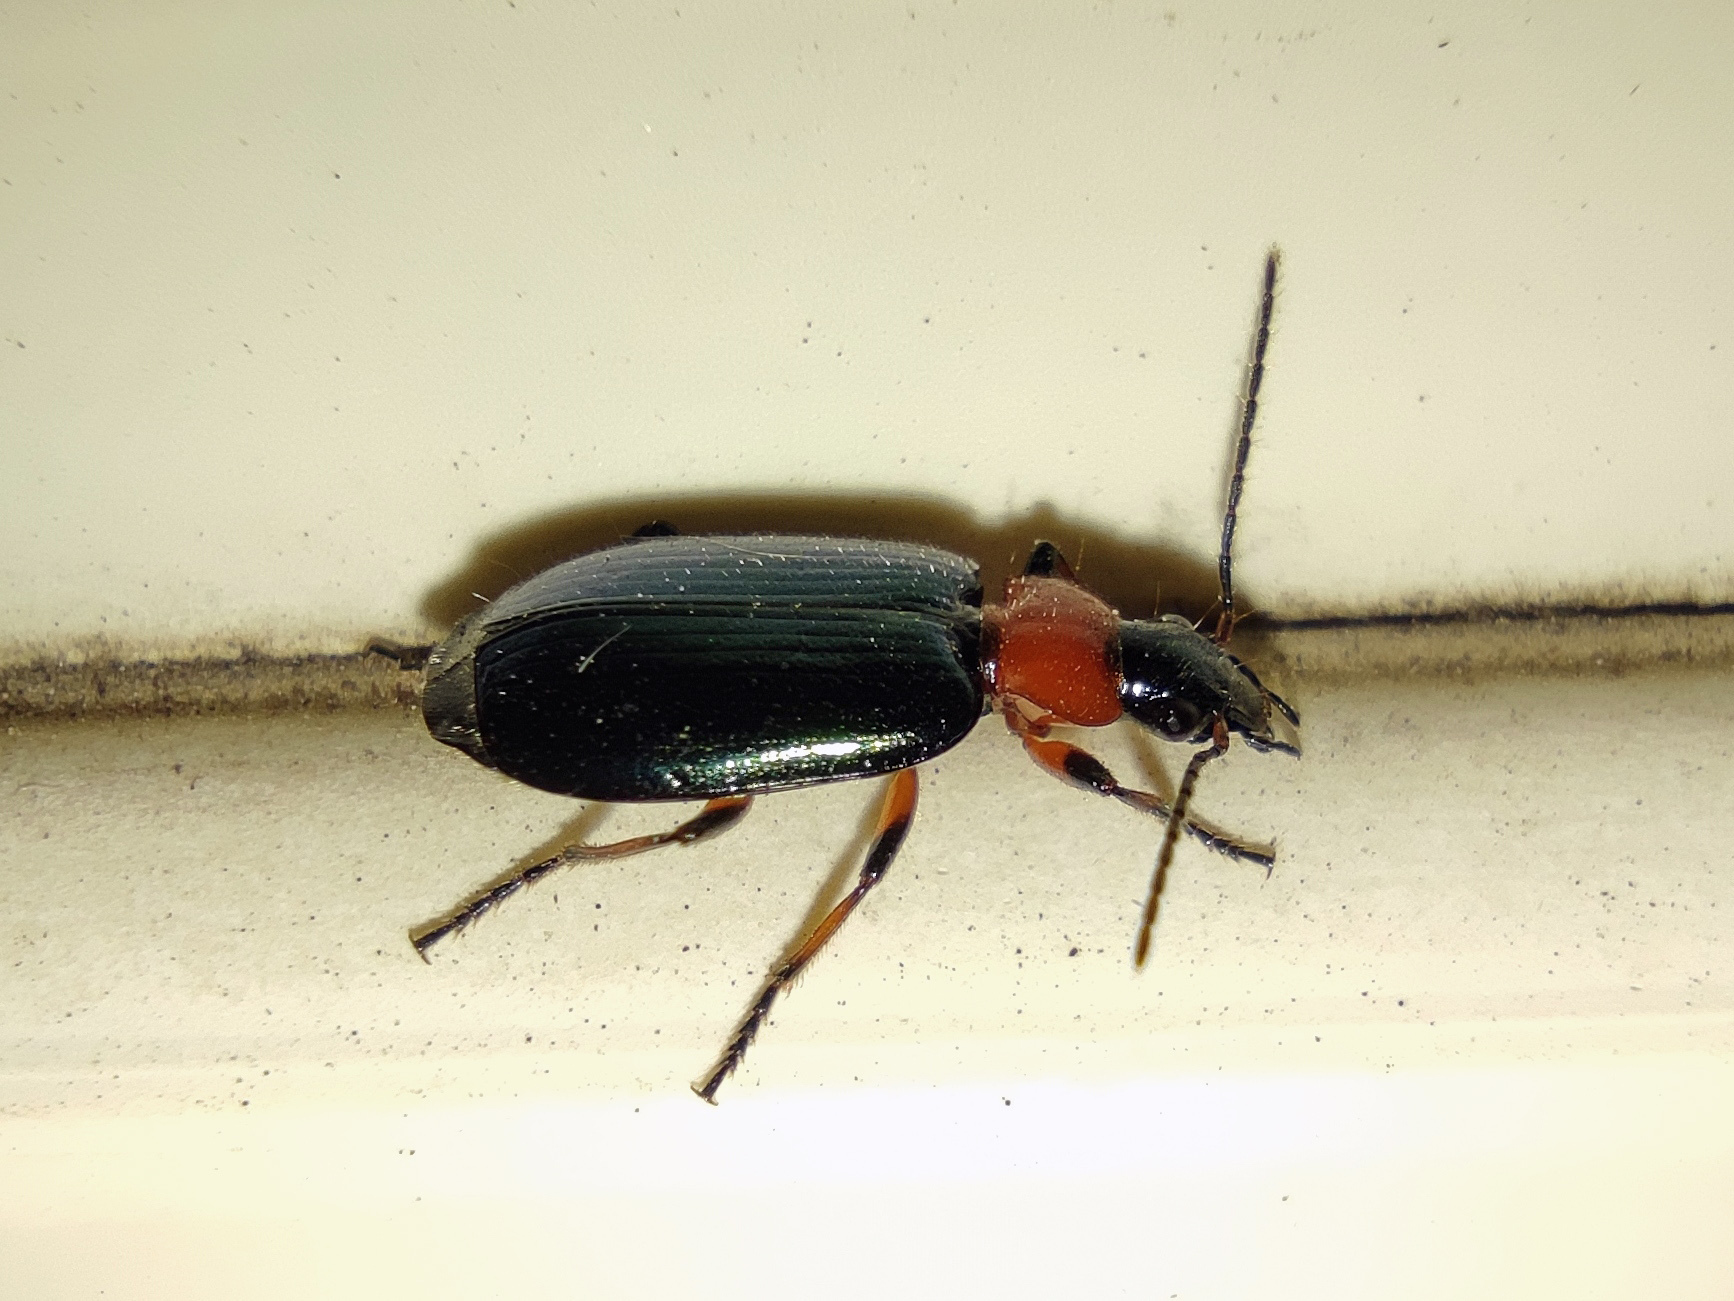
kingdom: Animalia
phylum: Arthropoda
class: Insecta
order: Coleoptera
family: Carabidae
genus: Lebia
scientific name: Lebia cyanocephala
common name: Blue plunderer
